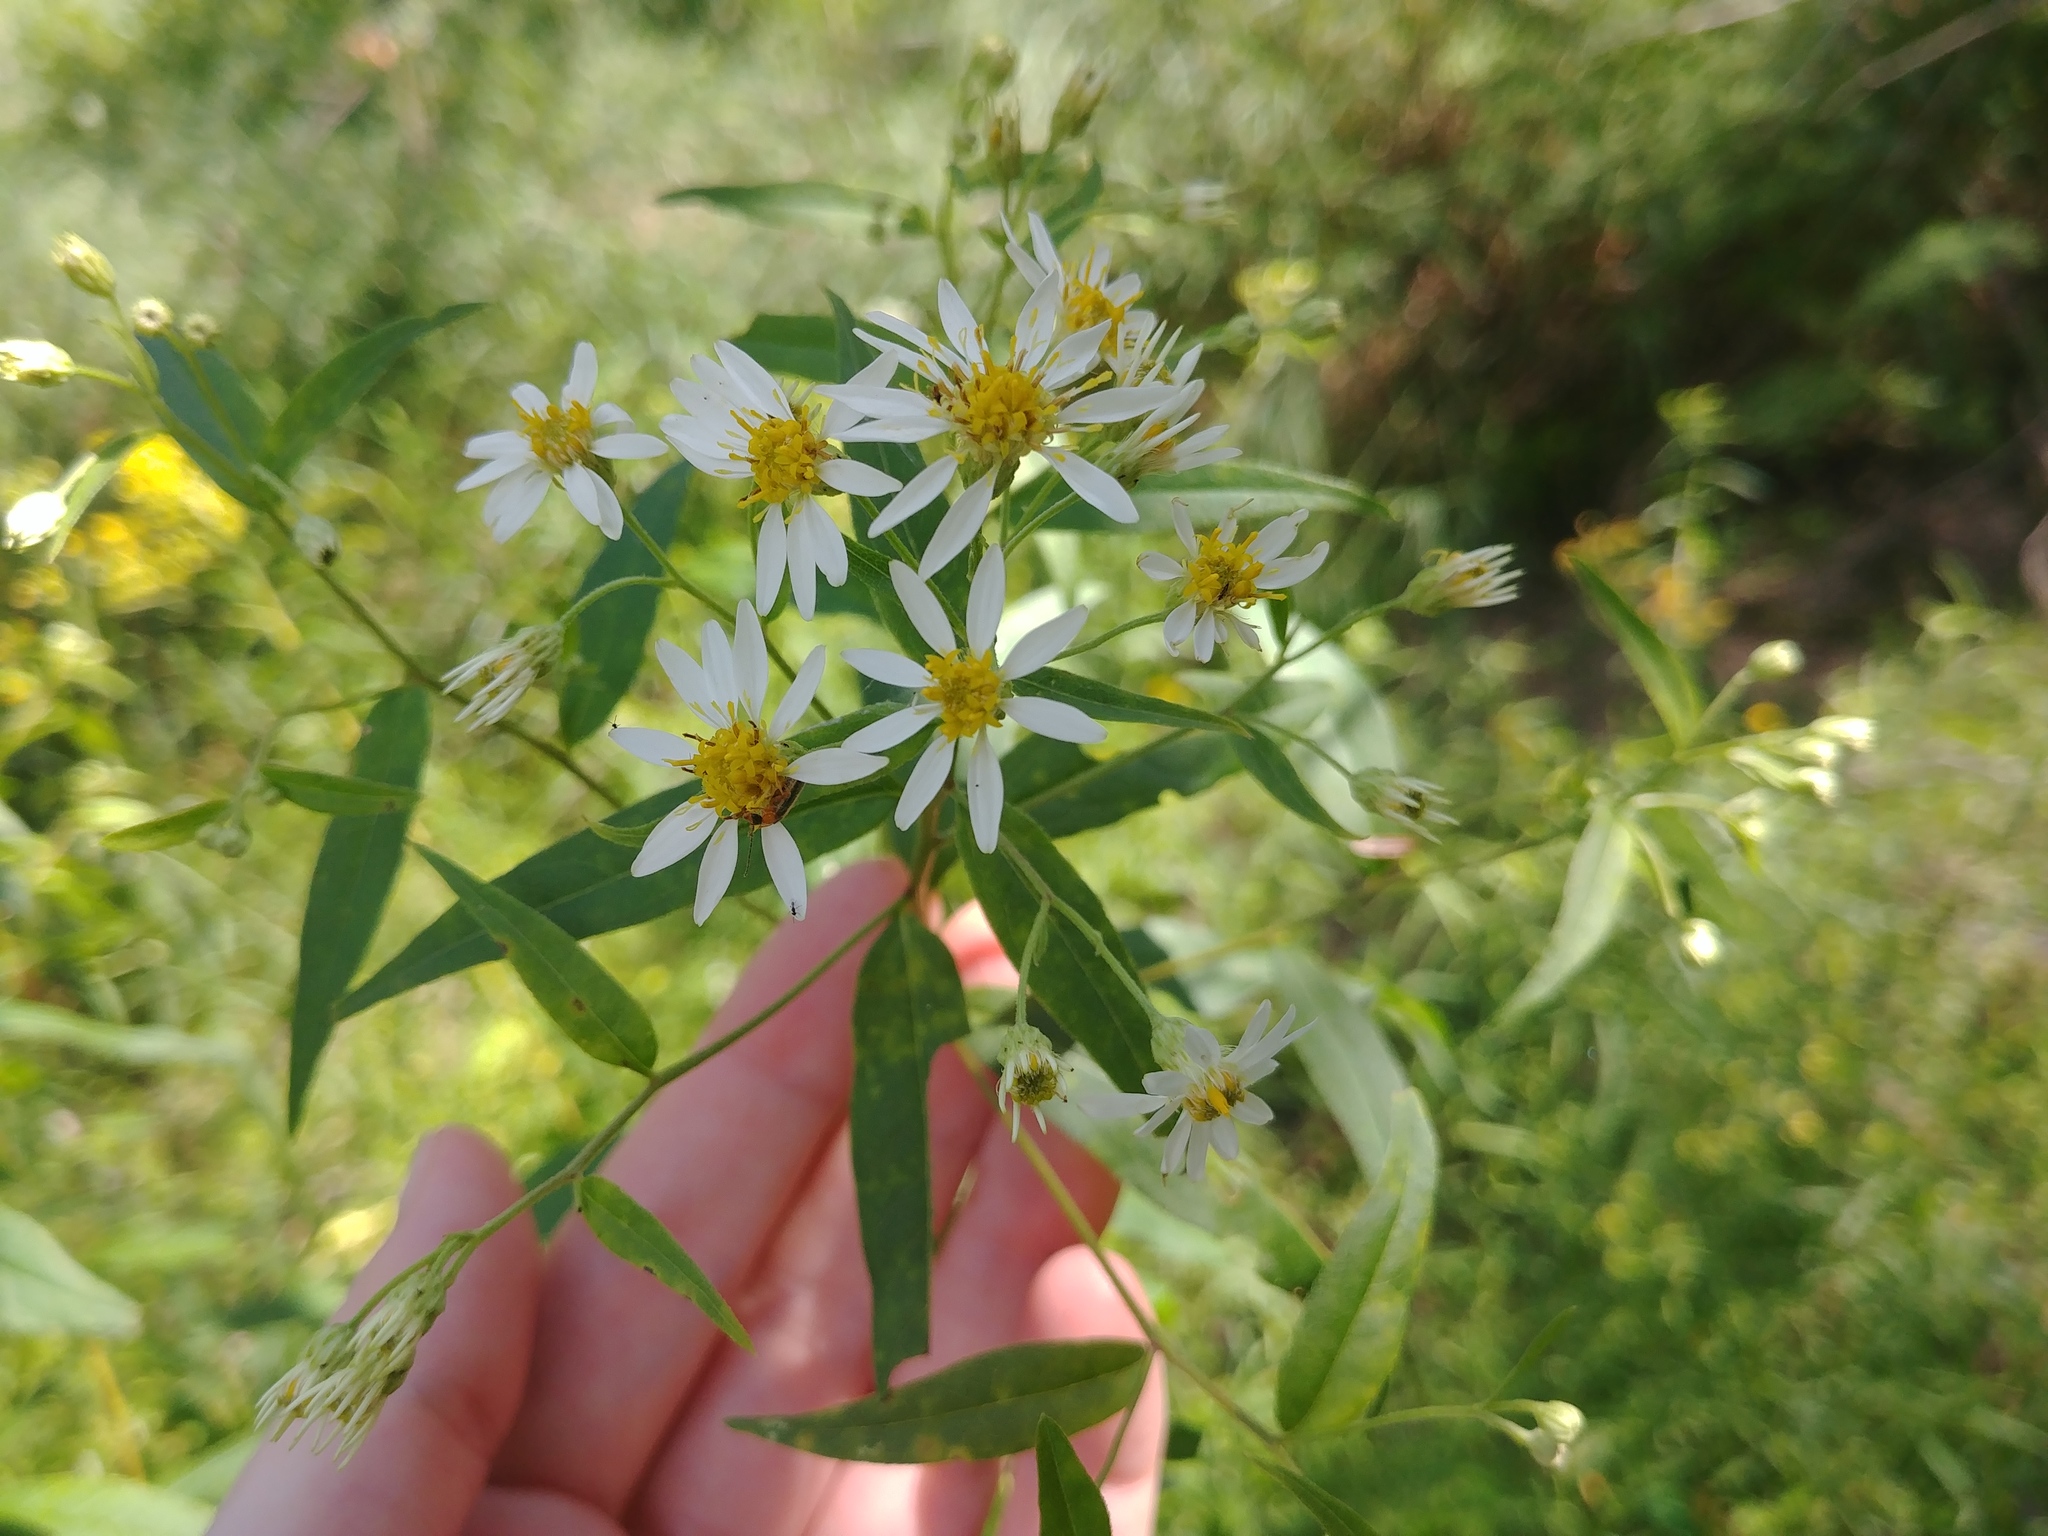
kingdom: Plantae
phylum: Tracheophyta
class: Magnoliopsida
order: Asterales
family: Asteraceae
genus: Doellingeria
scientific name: Doellingeria umbellata
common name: Flat-top white aster
